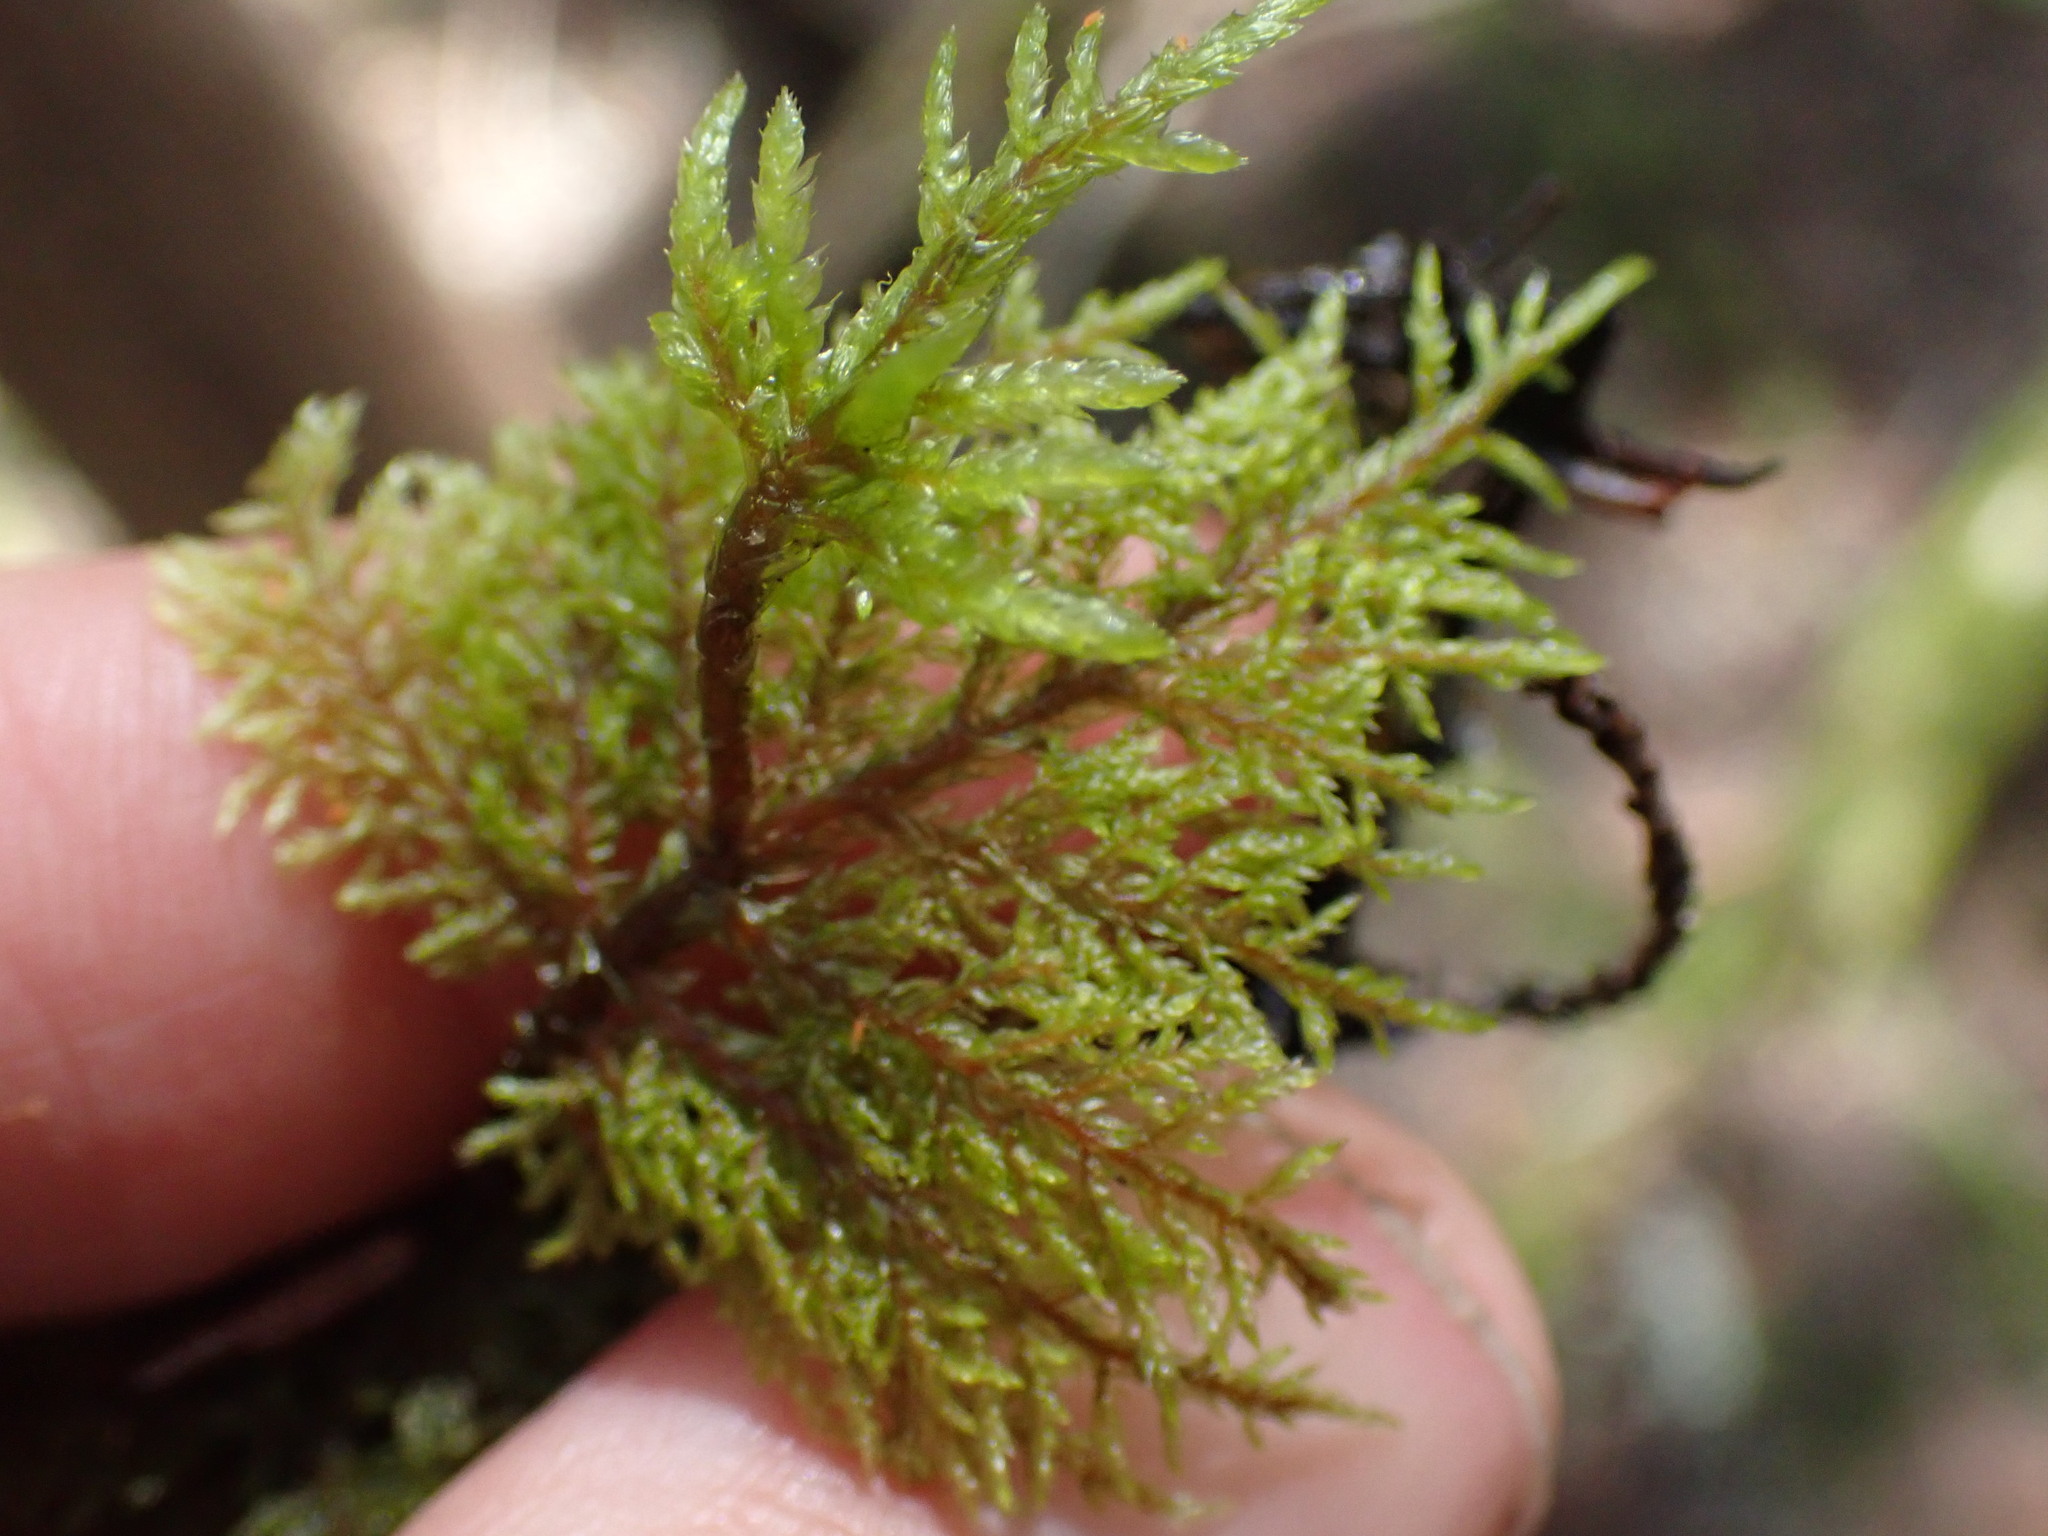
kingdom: Plantae
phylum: Bryophyta
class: Bryopsida
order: Hypnales
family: Hylocomiaceae
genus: Hylocomium
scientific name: Hylocomium splendens
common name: Stairstep moss
